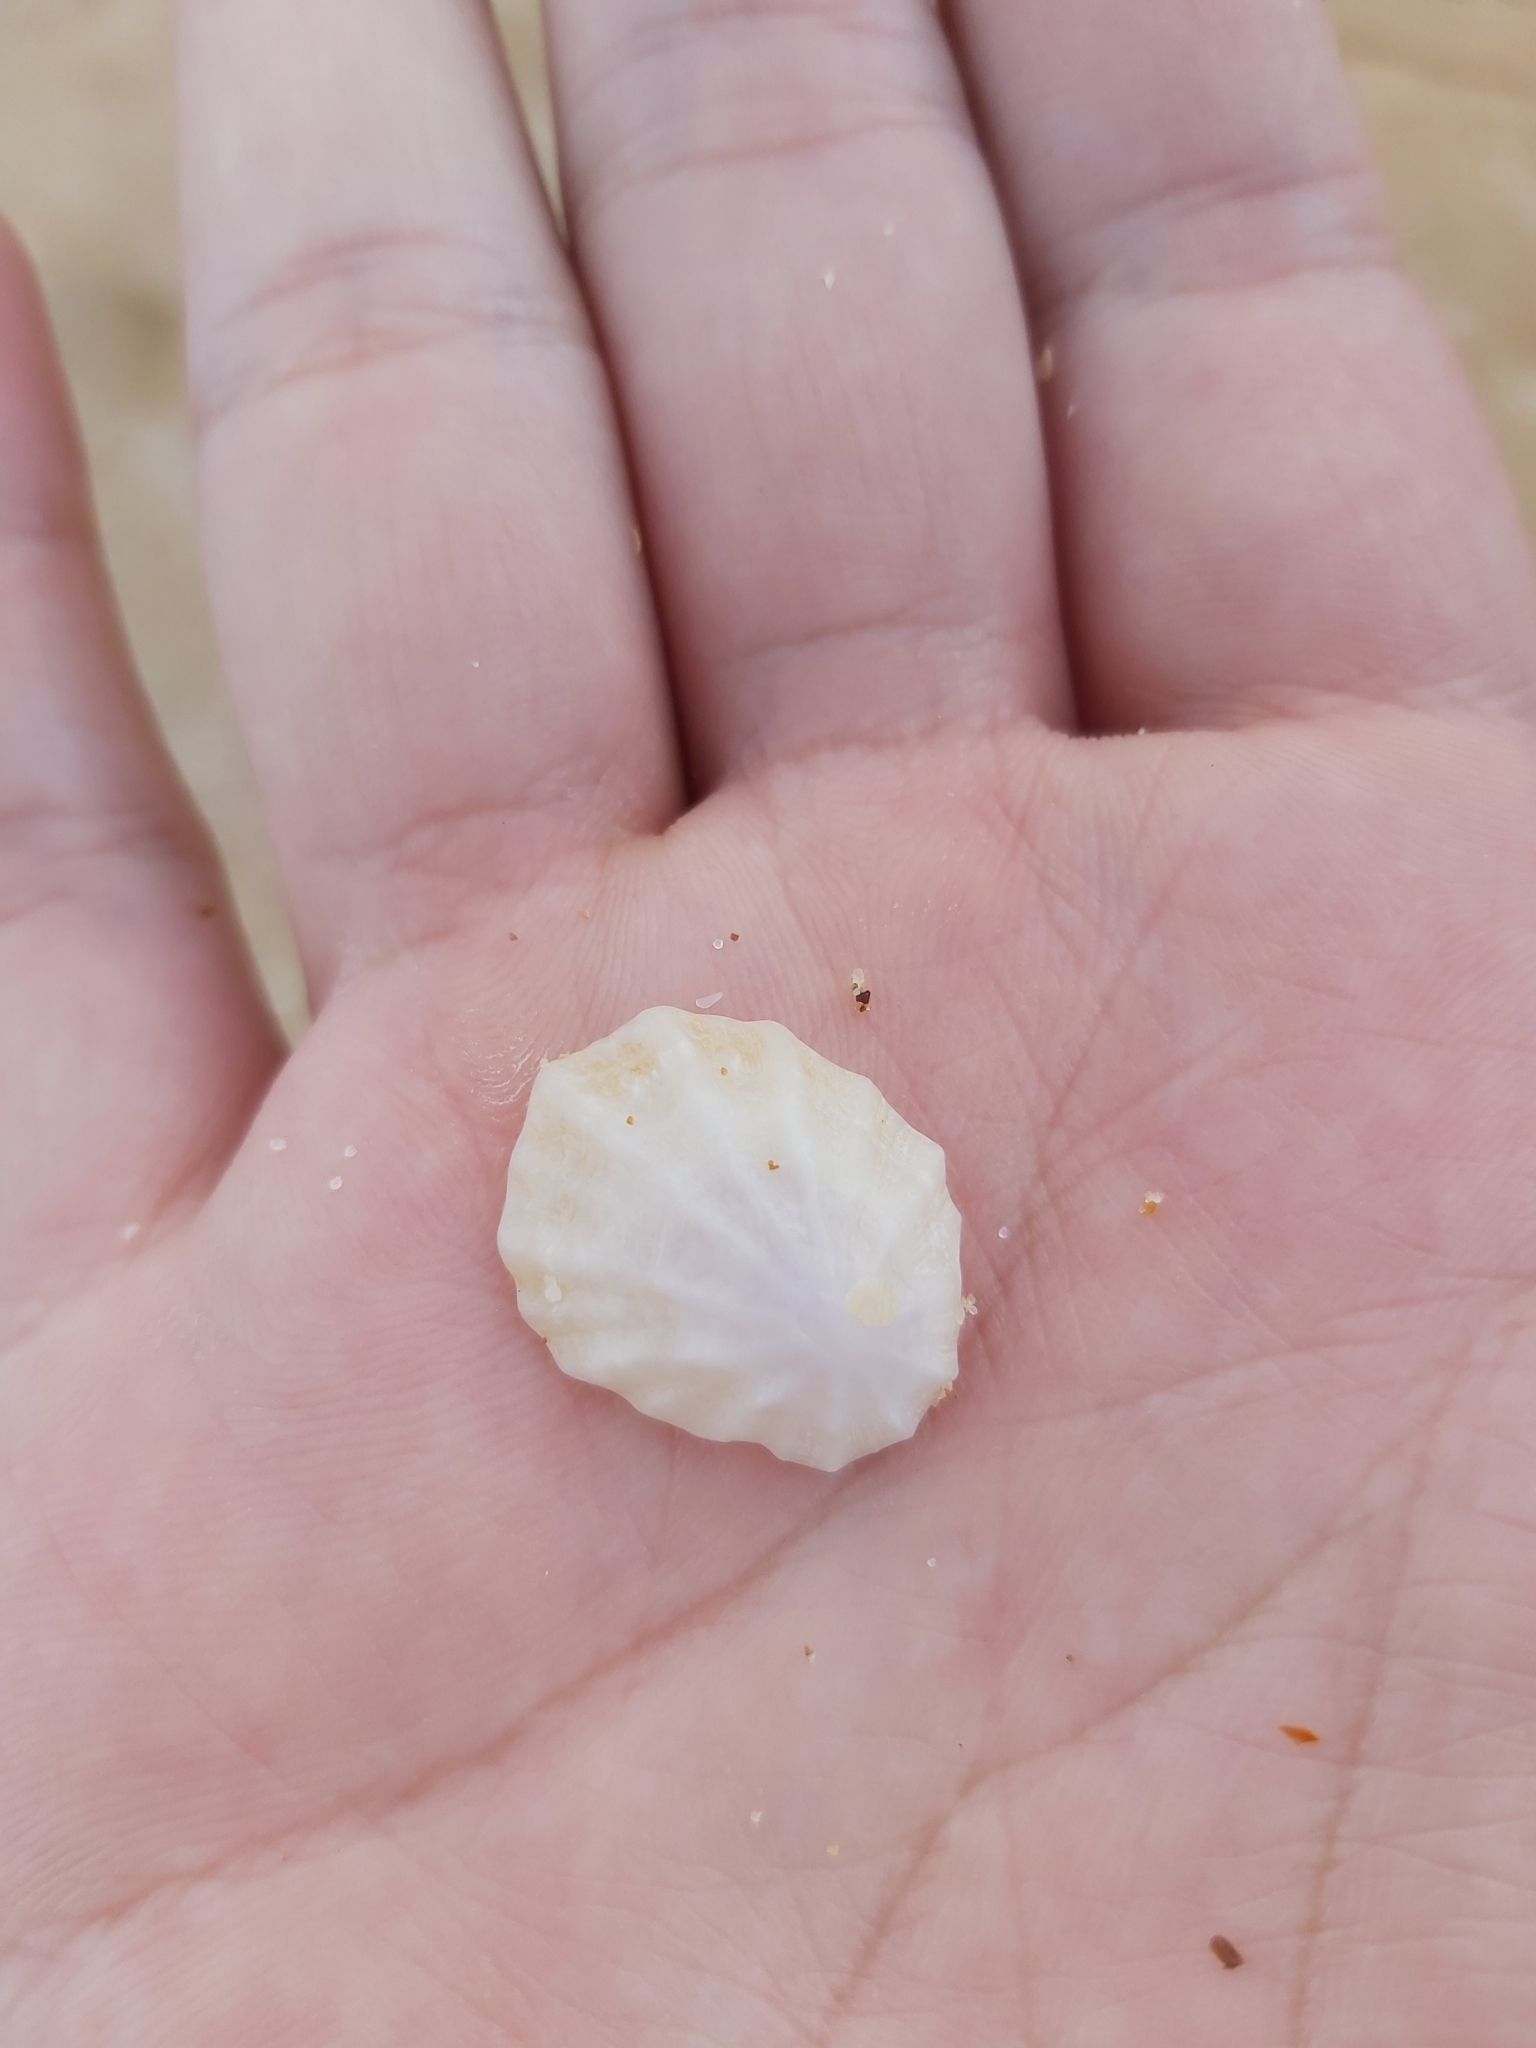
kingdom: Animalia
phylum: Mollusca
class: Gastropoda
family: Patellidae
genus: Scutellastra
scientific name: Scutellastra peronii
